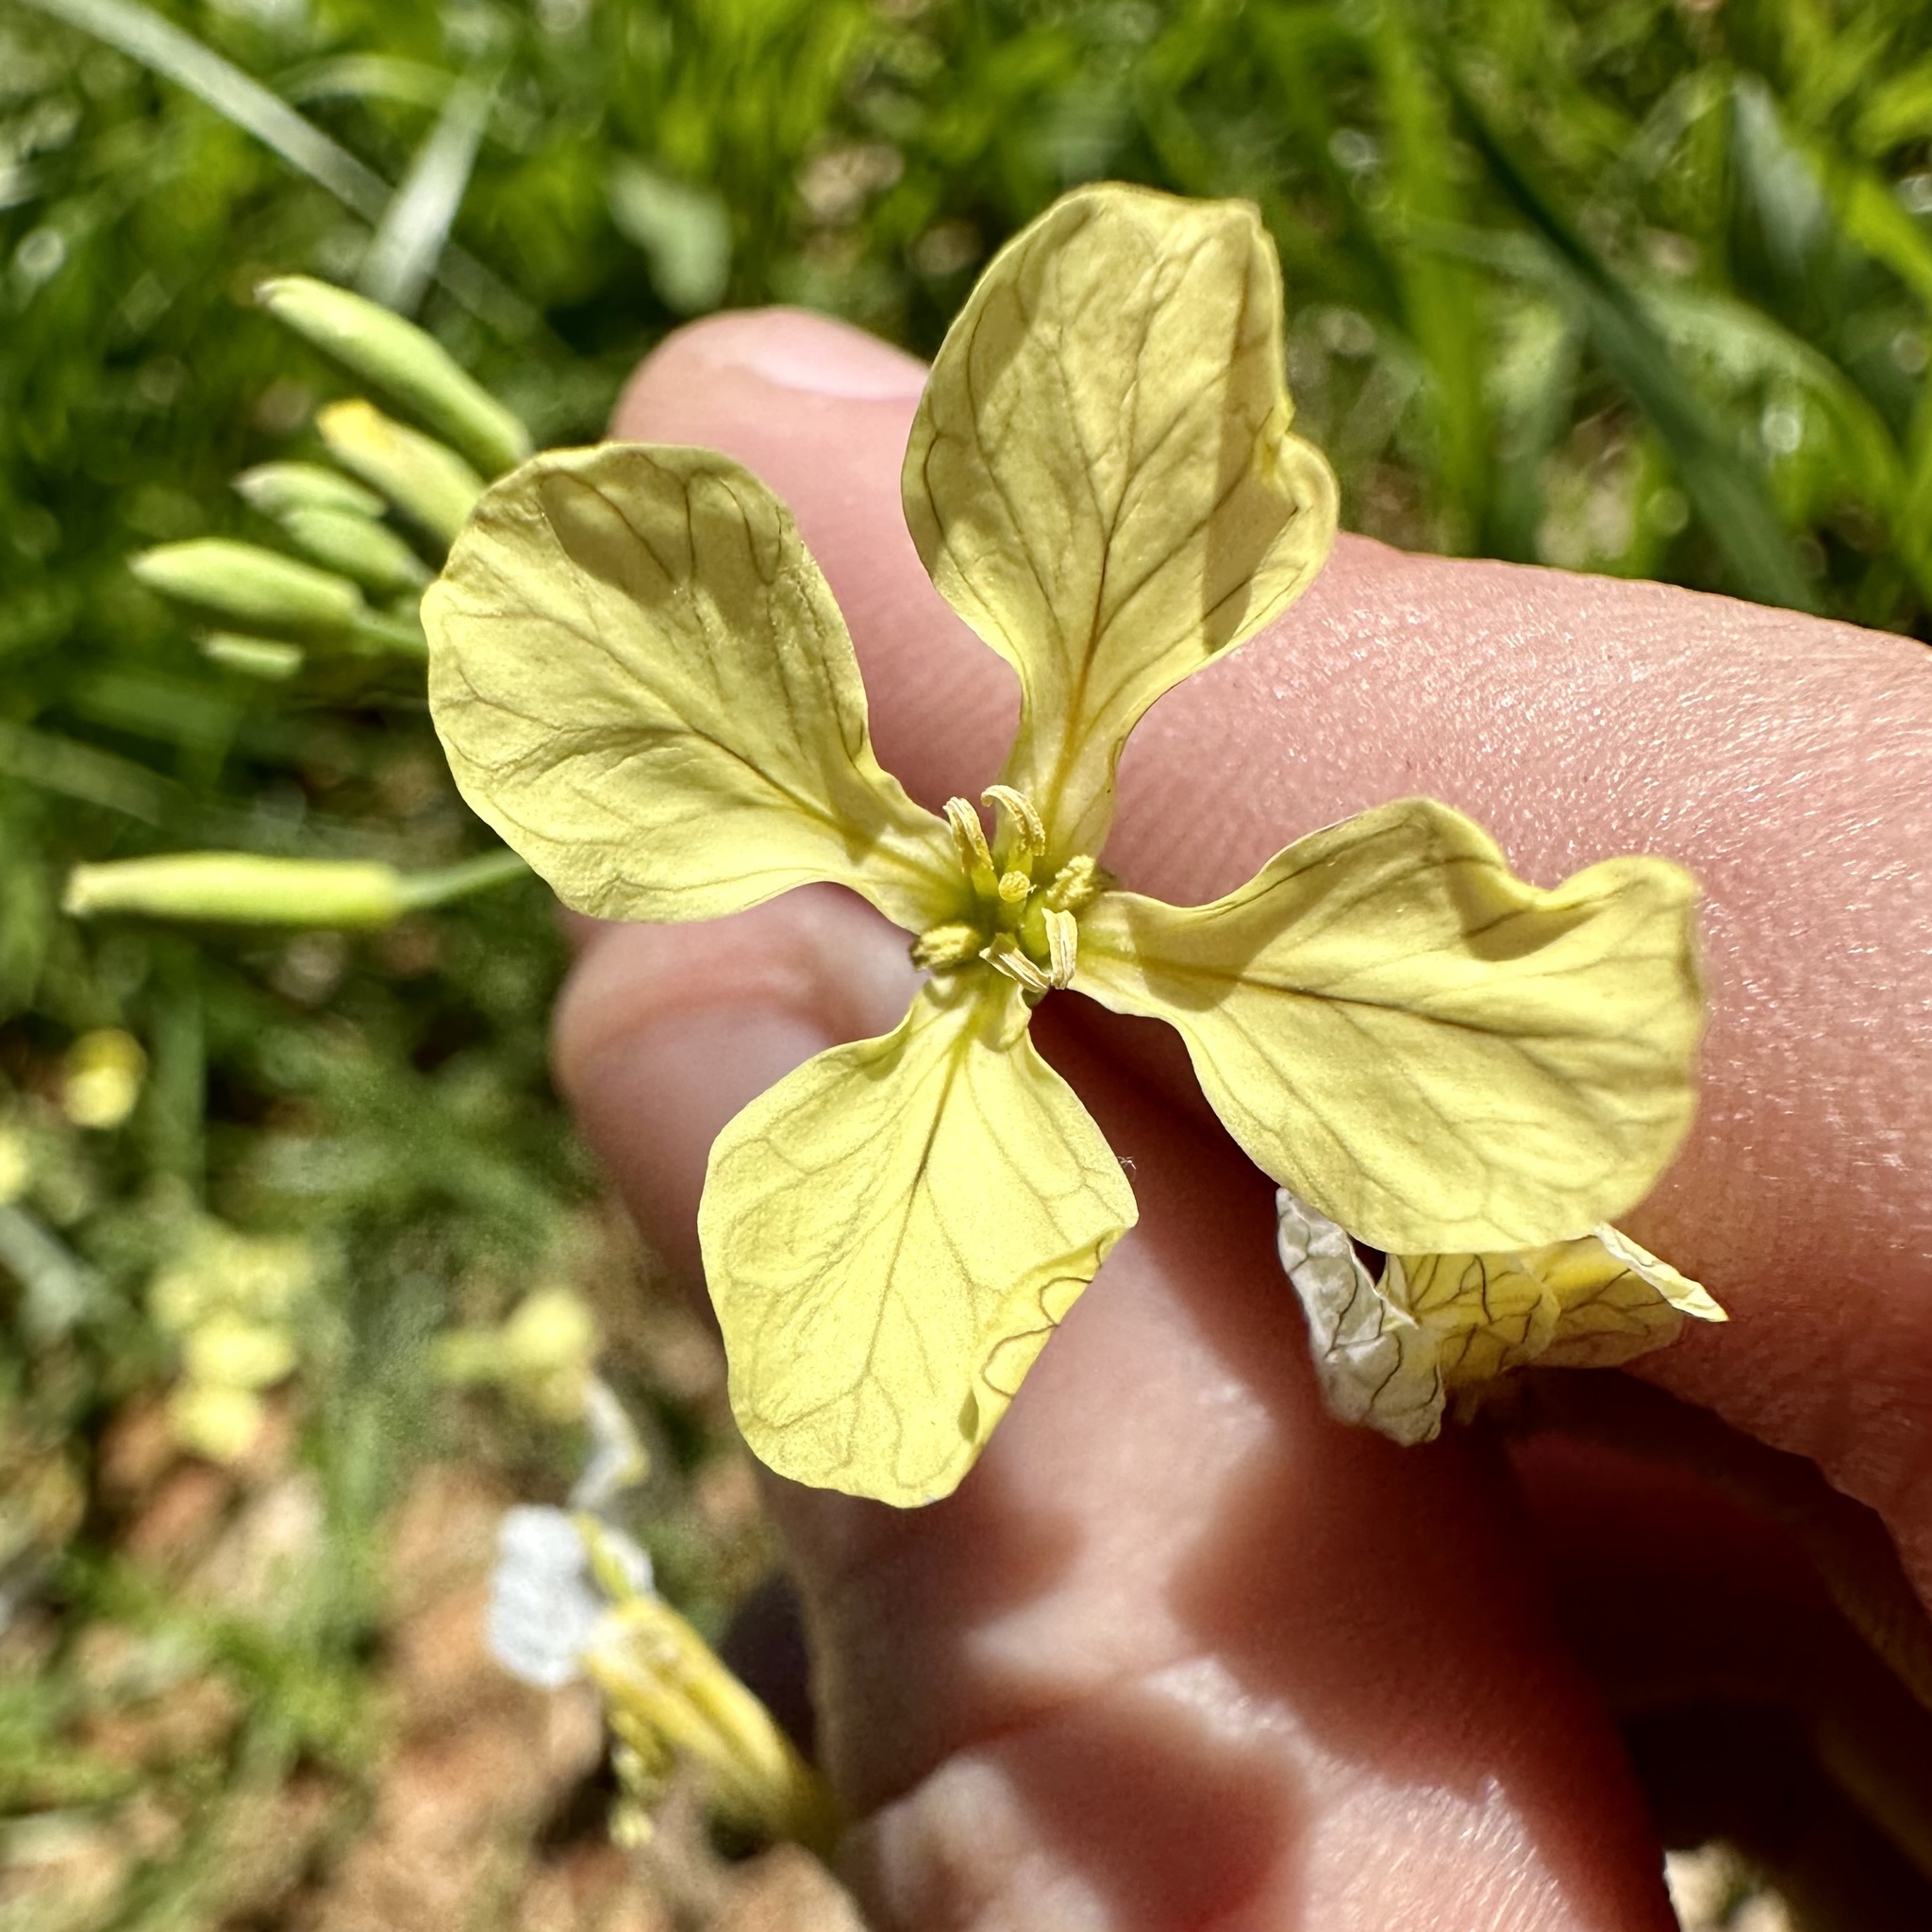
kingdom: Plantae
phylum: Tracheophyta
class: Magnoliopsida
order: Brassicales
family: Brassicaceae
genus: Raphanus
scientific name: Raphanus raphanistrum
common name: Wild radish
